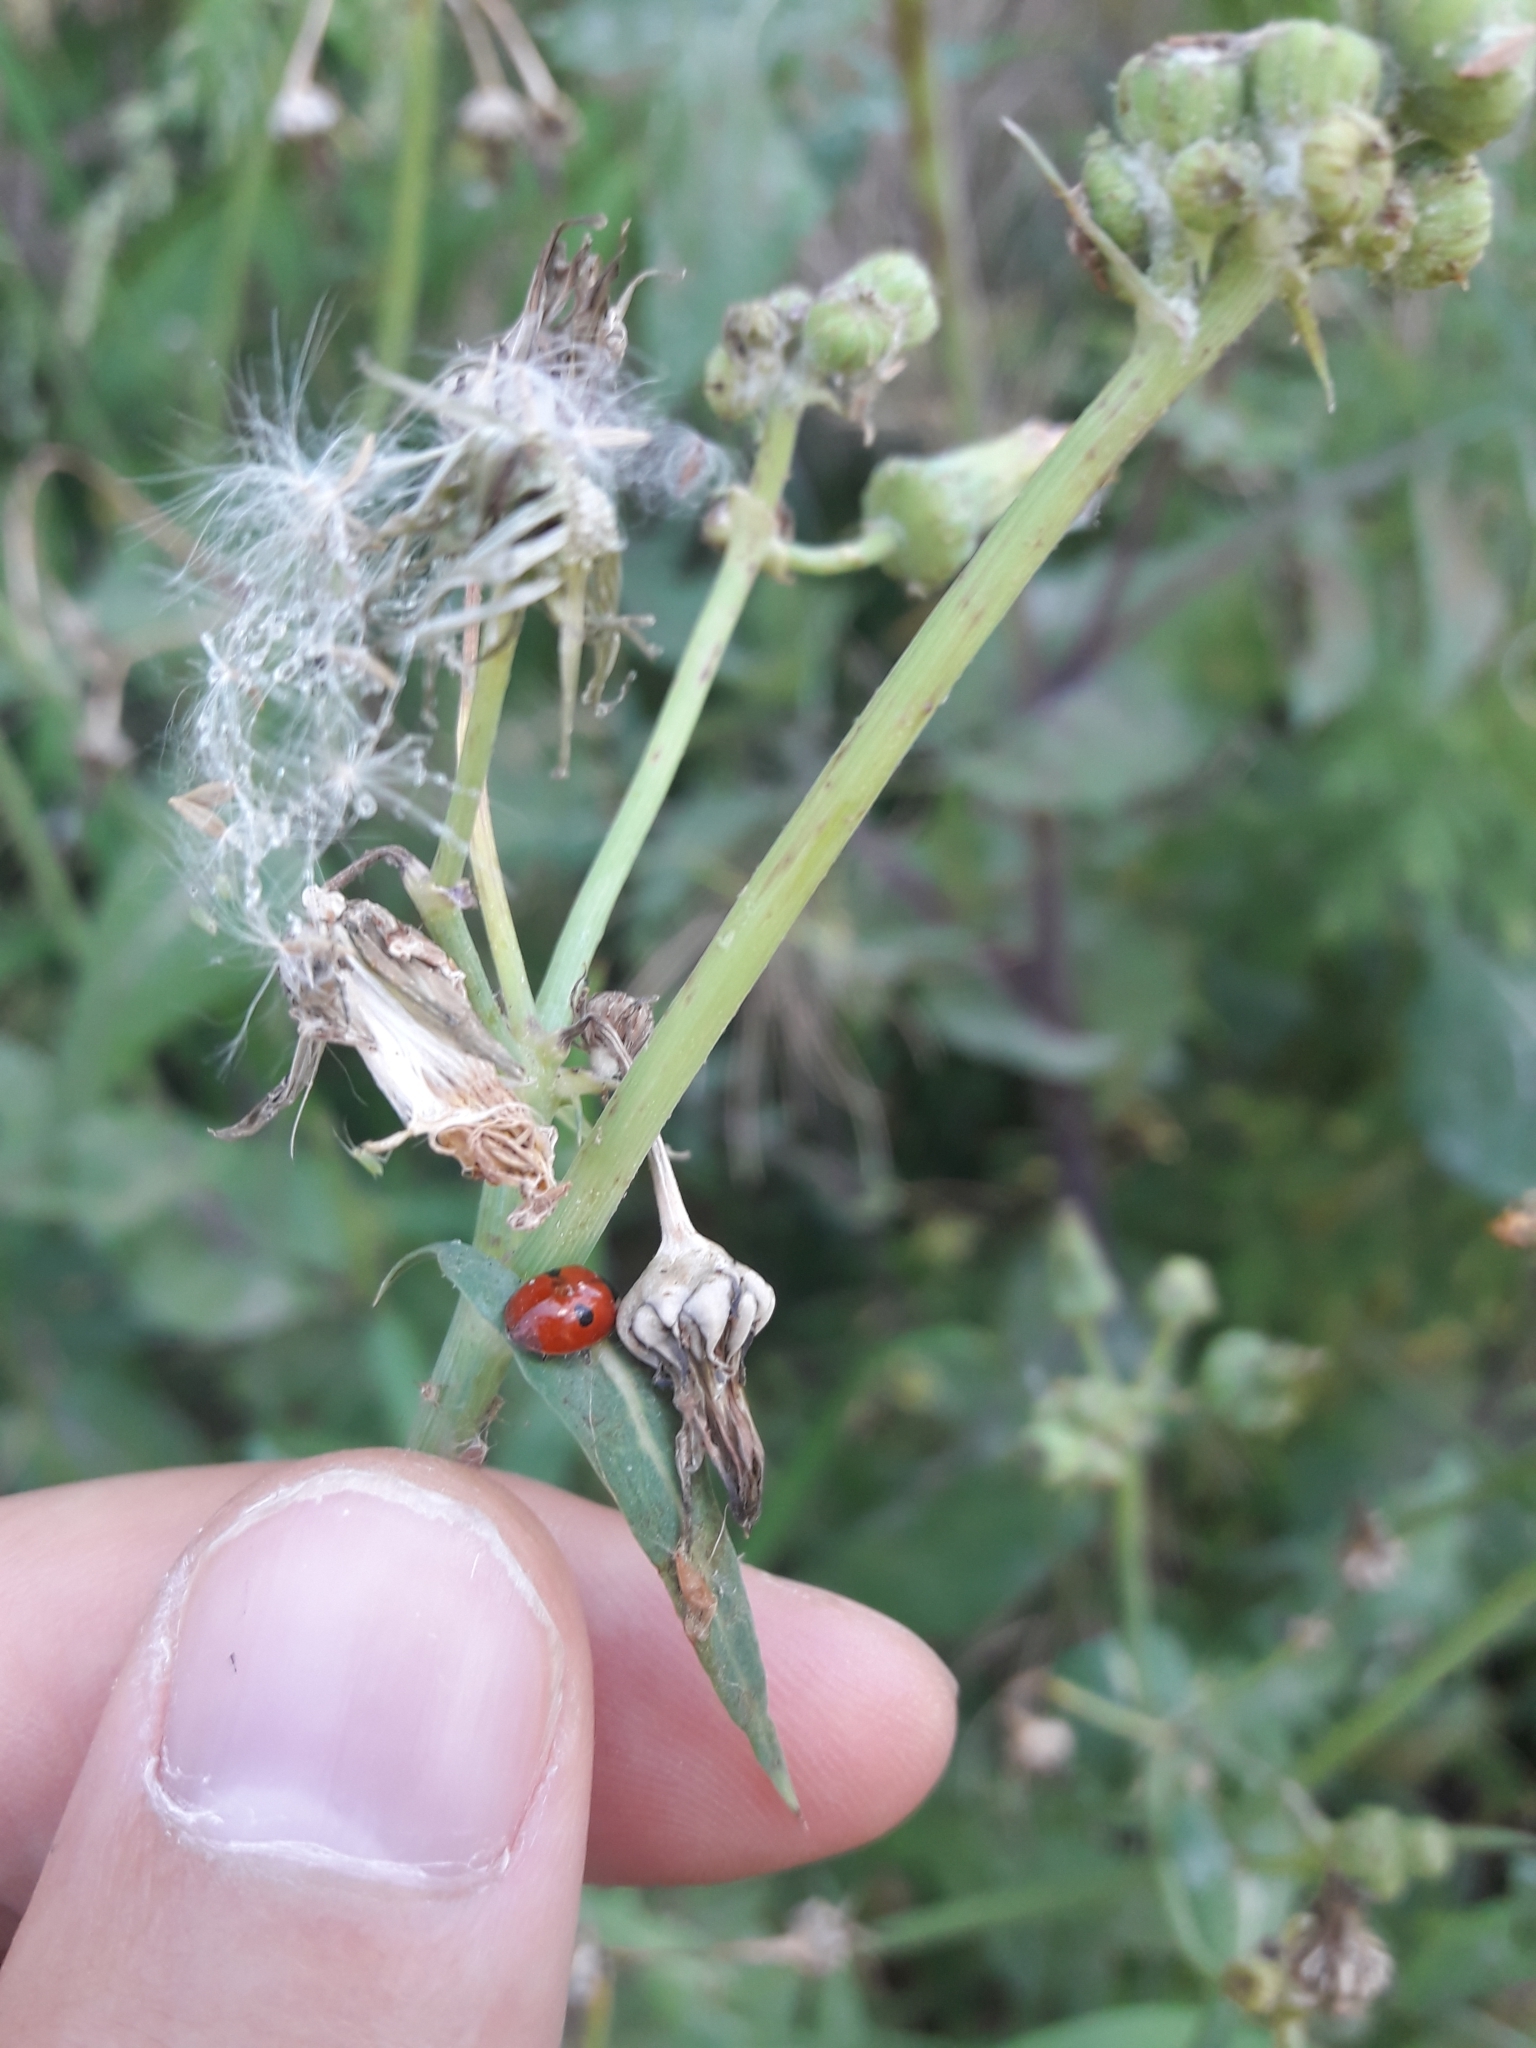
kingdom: Animalia
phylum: Arthropoda
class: Insecta
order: Coleoptera
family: Coccinellidae
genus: Adalia
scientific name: Adalia bipunctata
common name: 2-spot ladybird
